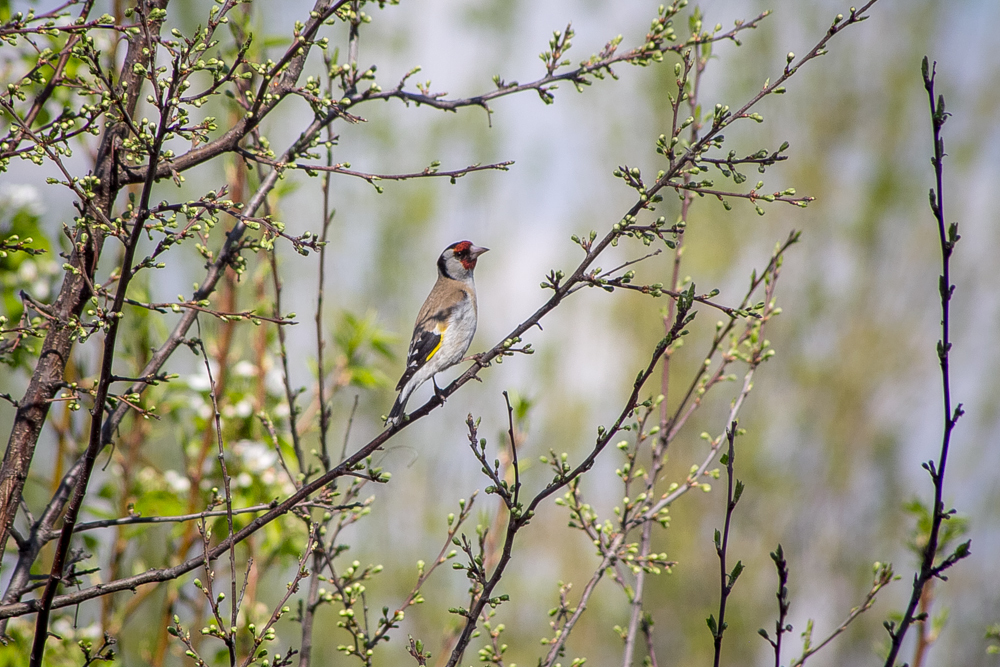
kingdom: Animalia
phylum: Chordata
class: Aves
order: Passeriformes
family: Fringillidae
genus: Carduelis
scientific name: Carduelis carduelis
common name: European goldfinch
